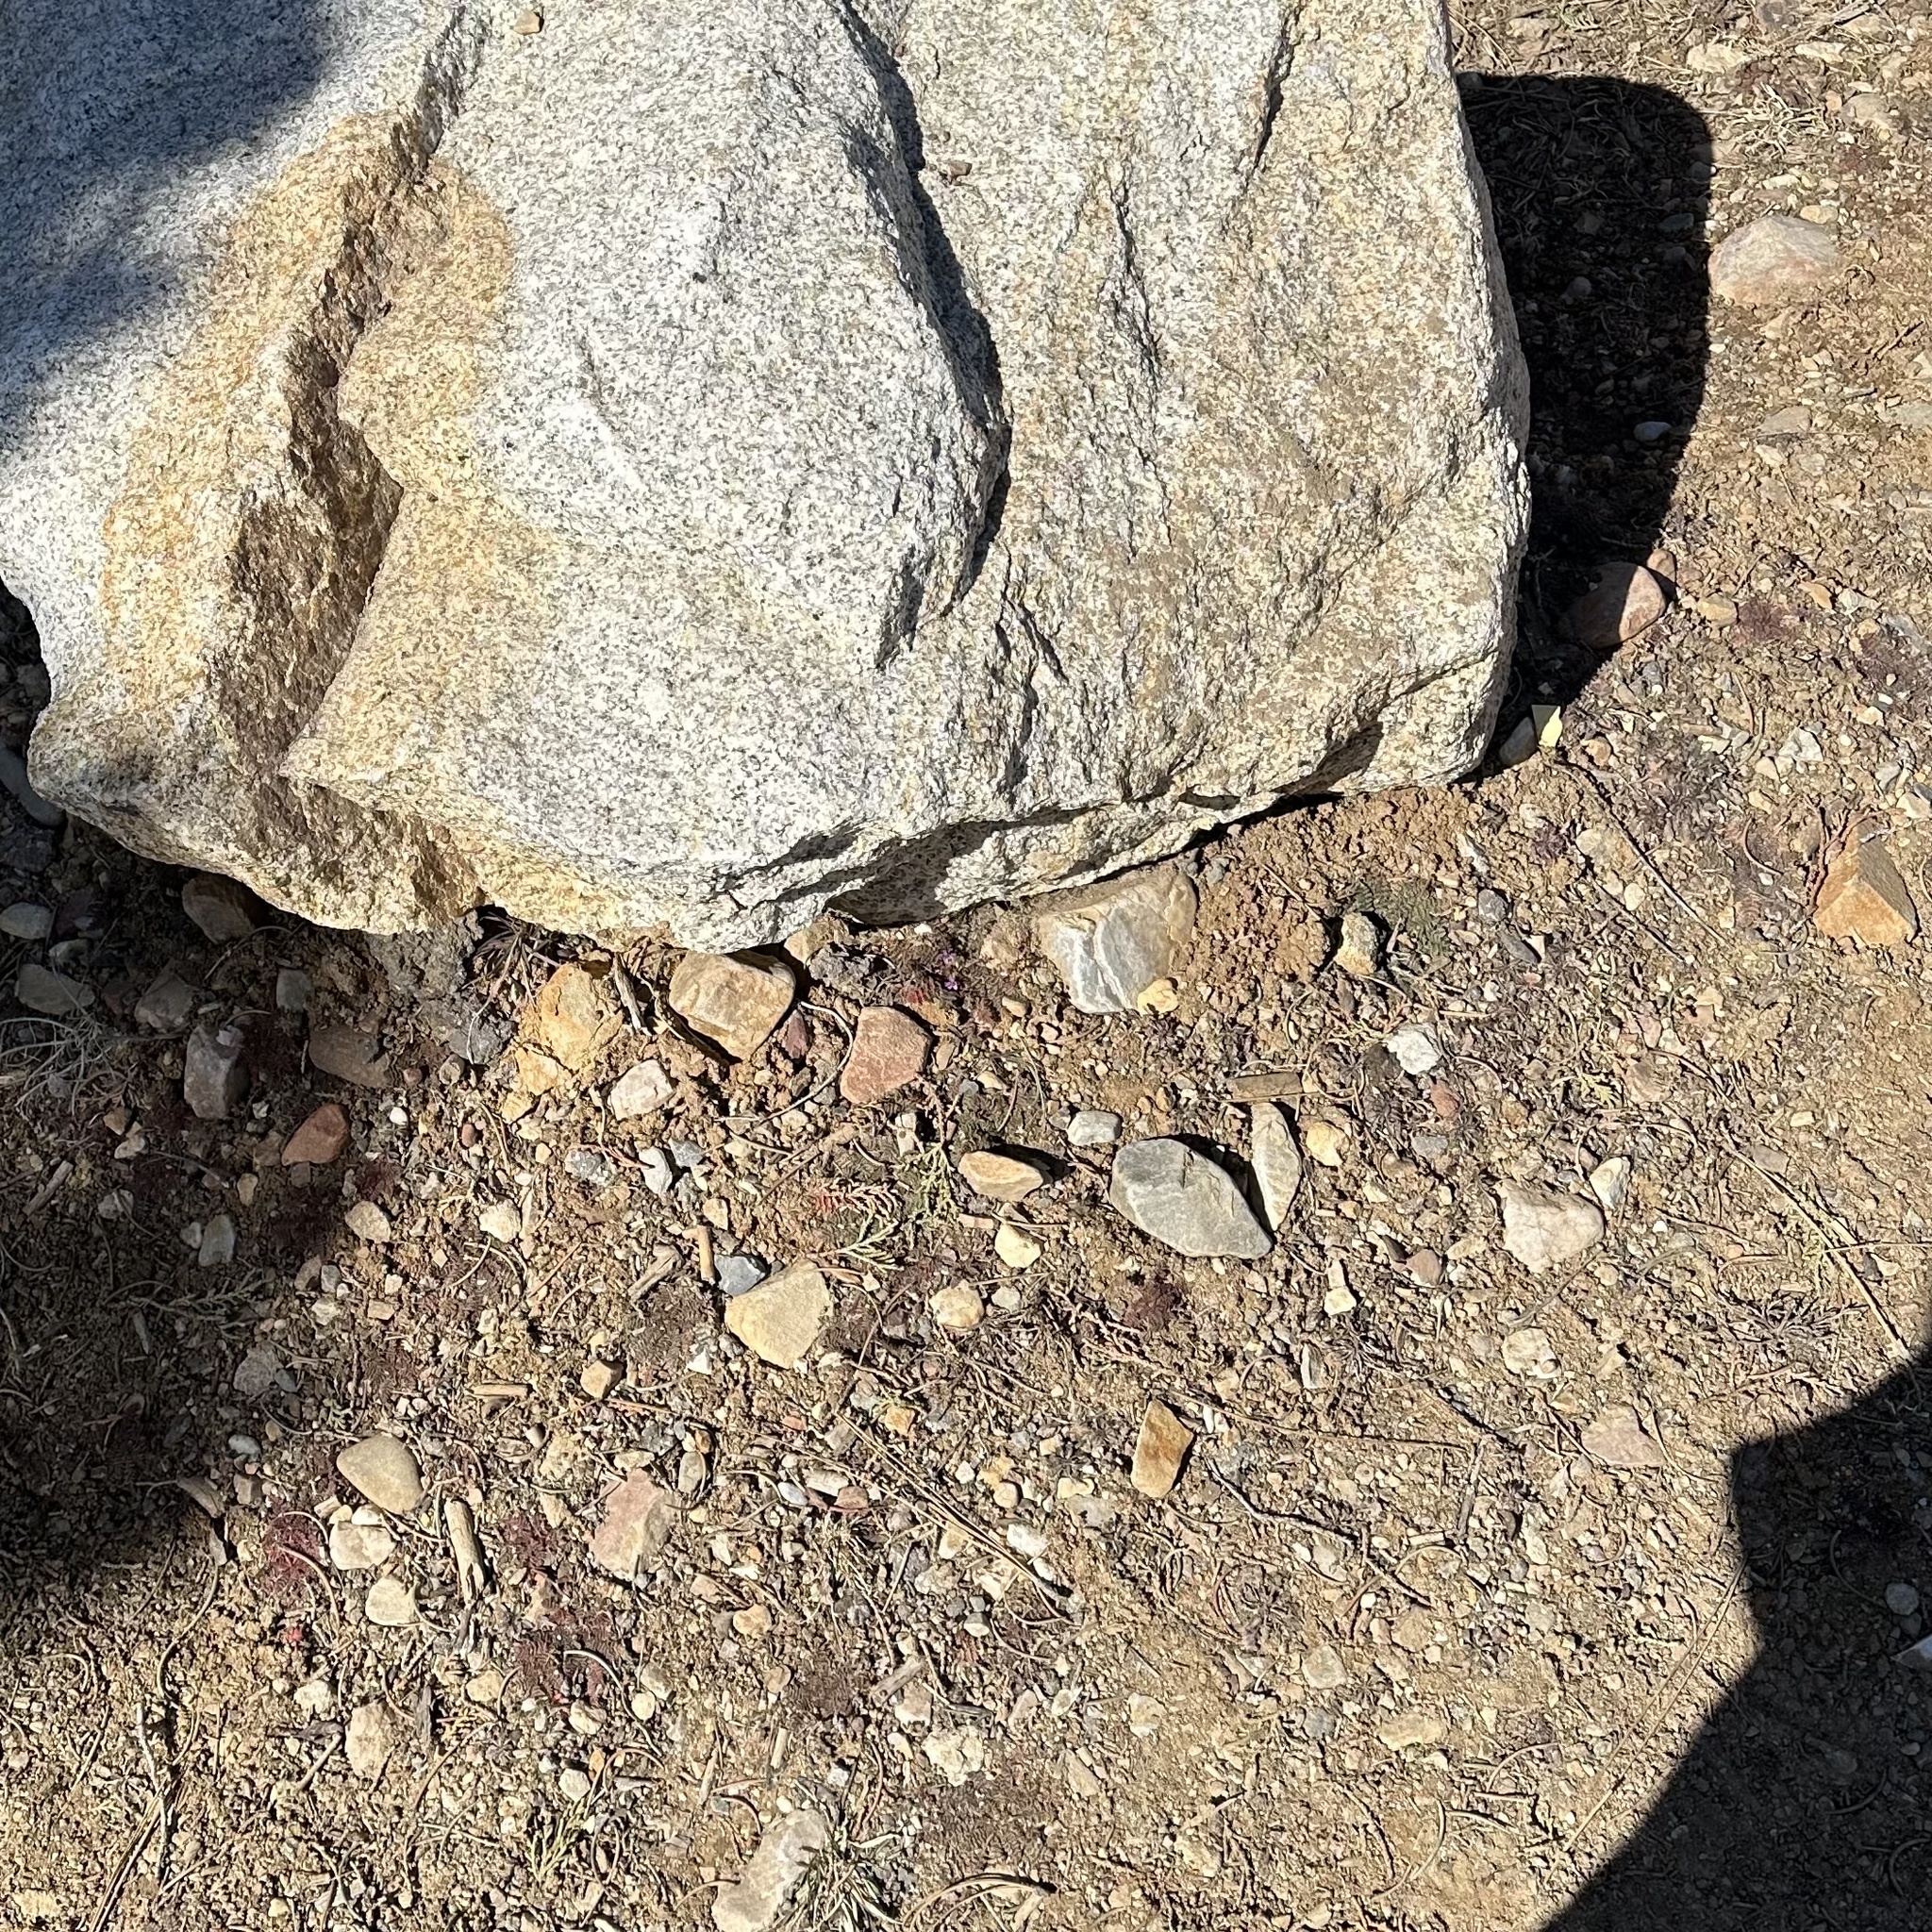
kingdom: Plantae
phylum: Tracheophyta
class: Magnoliopsida
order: Geraniales
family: Geraniaceae
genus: Erodium
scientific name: Erodium cicutarium
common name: Common stork's-bill
